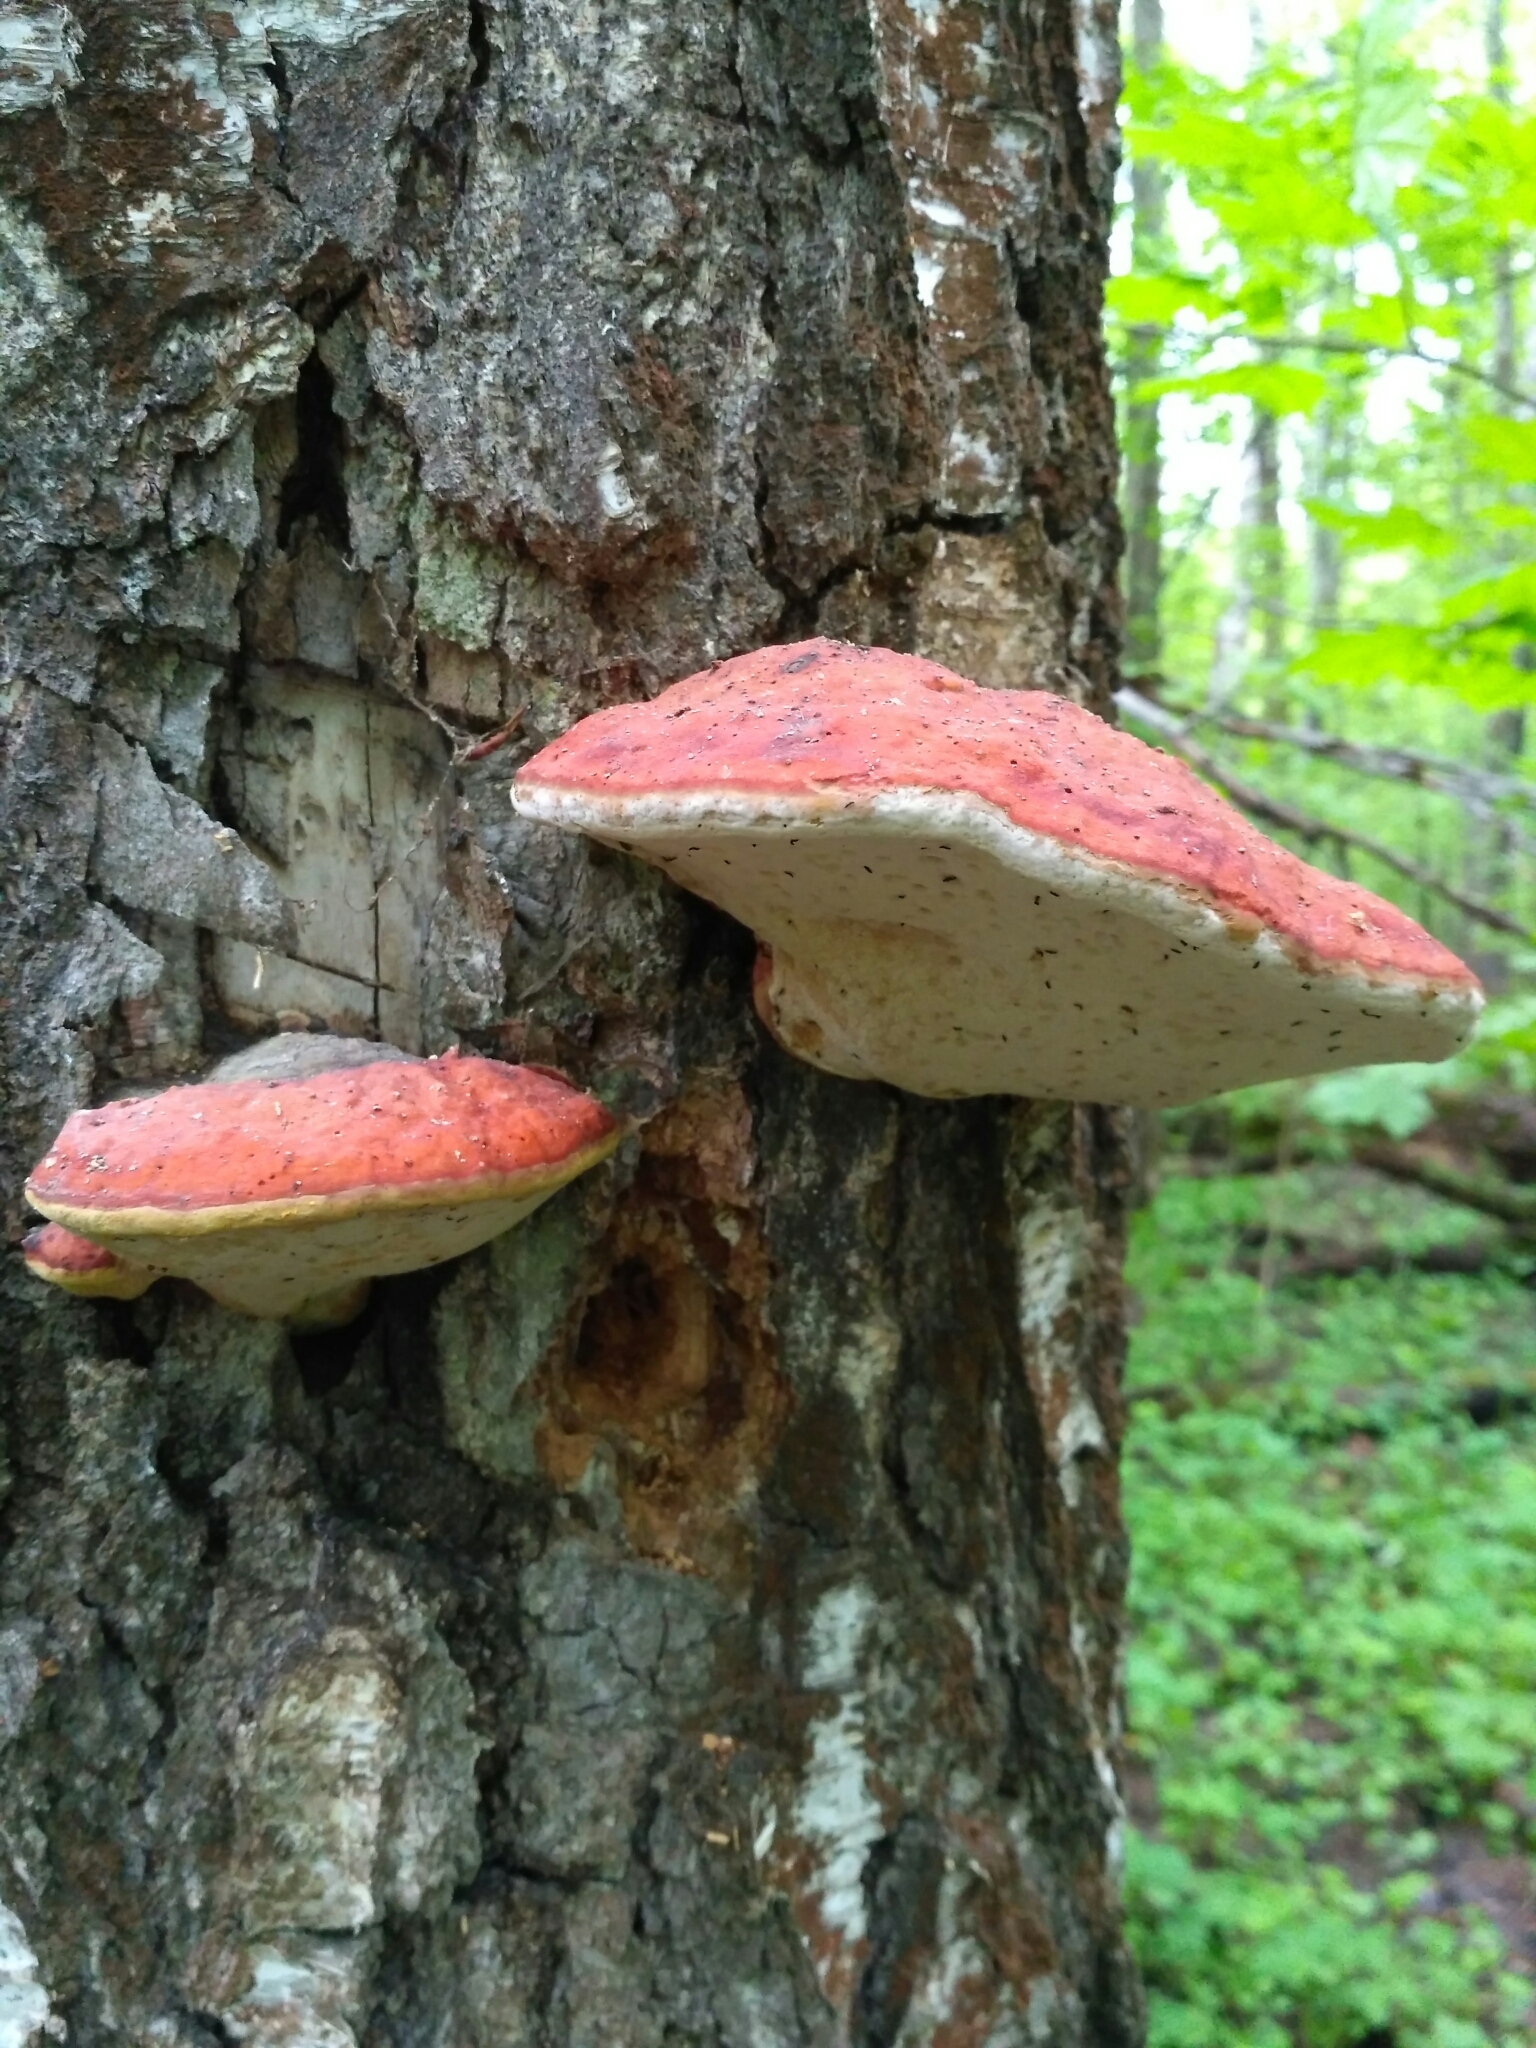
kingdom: Fungi
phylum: Basidiomycota
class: Agaricomycetes
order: Polyporales
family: Fomitopsidaceae
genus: Fomitopsis
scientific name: Fomitopsis pinicola
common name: Red-belted bracket
